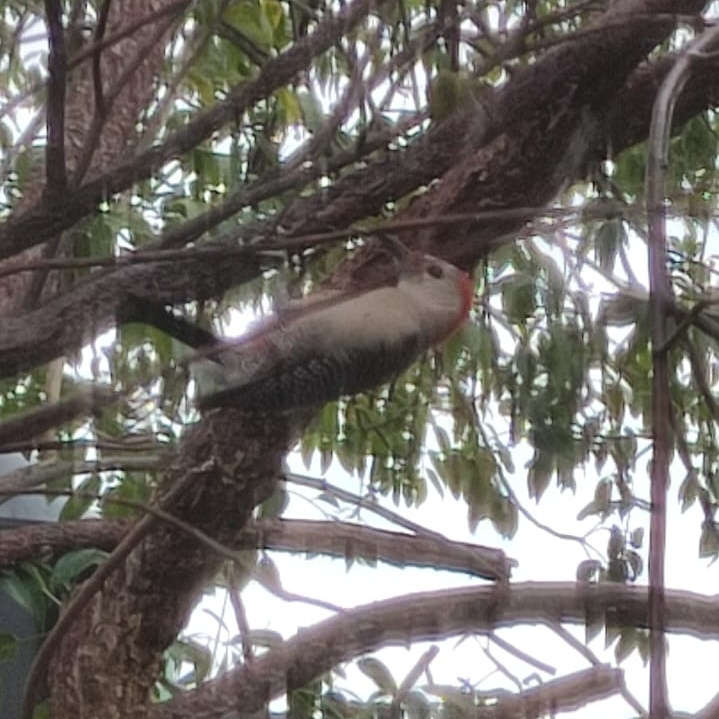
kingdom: Animalia
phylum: Chordata
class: Aves
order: Piciformes
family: Picidae
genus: Melanerpes
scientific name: Melanerpes pygmaeus
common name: Yucatan woodpecker
